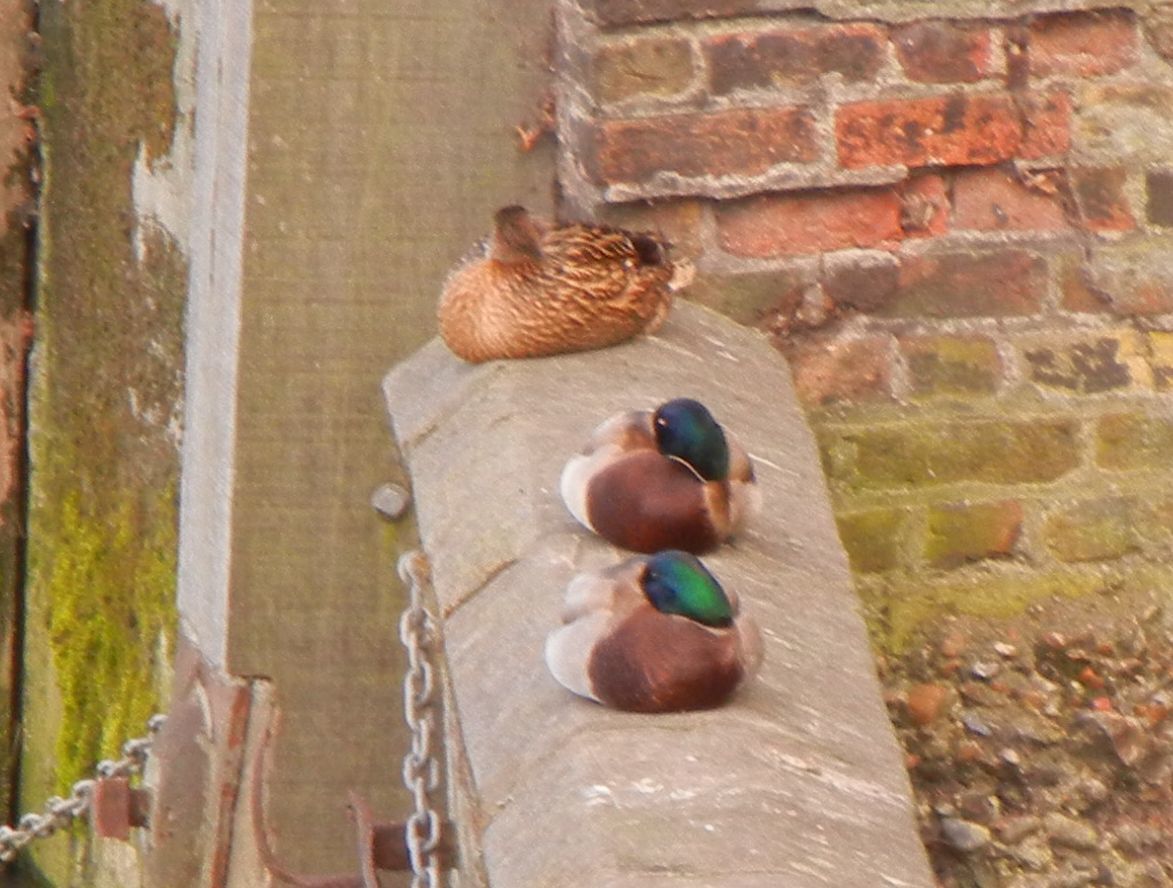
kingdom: Animalia
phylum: Chordata
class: Aves
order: Anseriformes
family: Anatidae
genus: Anas
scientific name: Anas platyrhynchos
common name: Mallard
